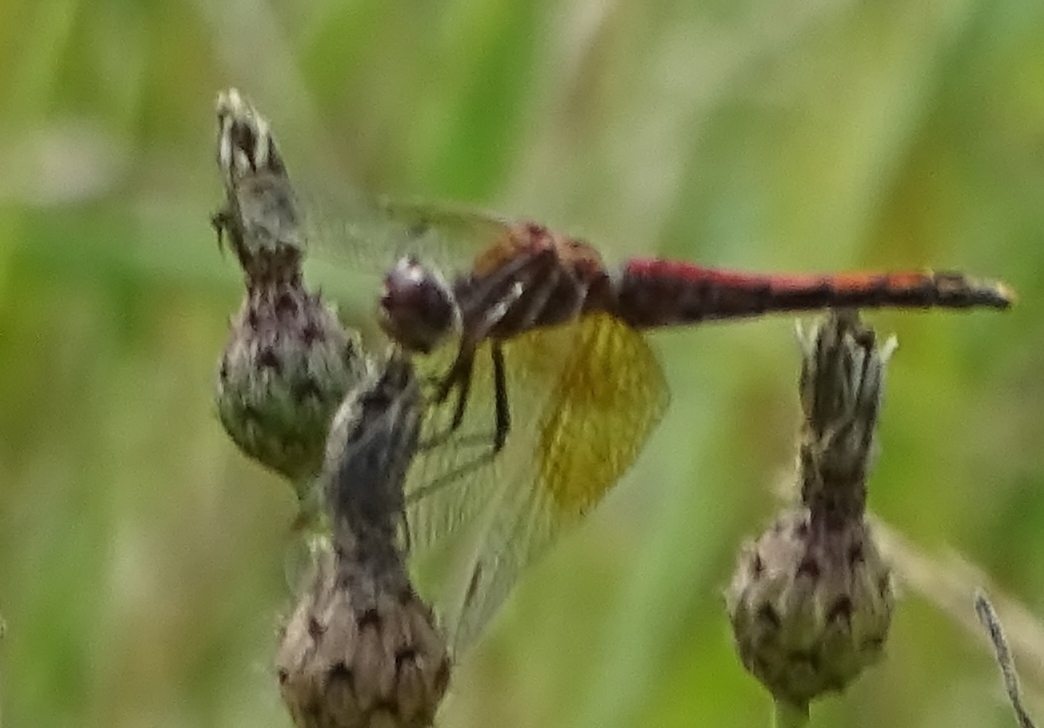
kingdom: Animalia
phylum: Arthropoda
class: Insecta
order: Odonata
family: Libellulidae
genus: Sympetrum
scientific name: Sympetrum semicinctum
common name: Band-winged meadowhawk
